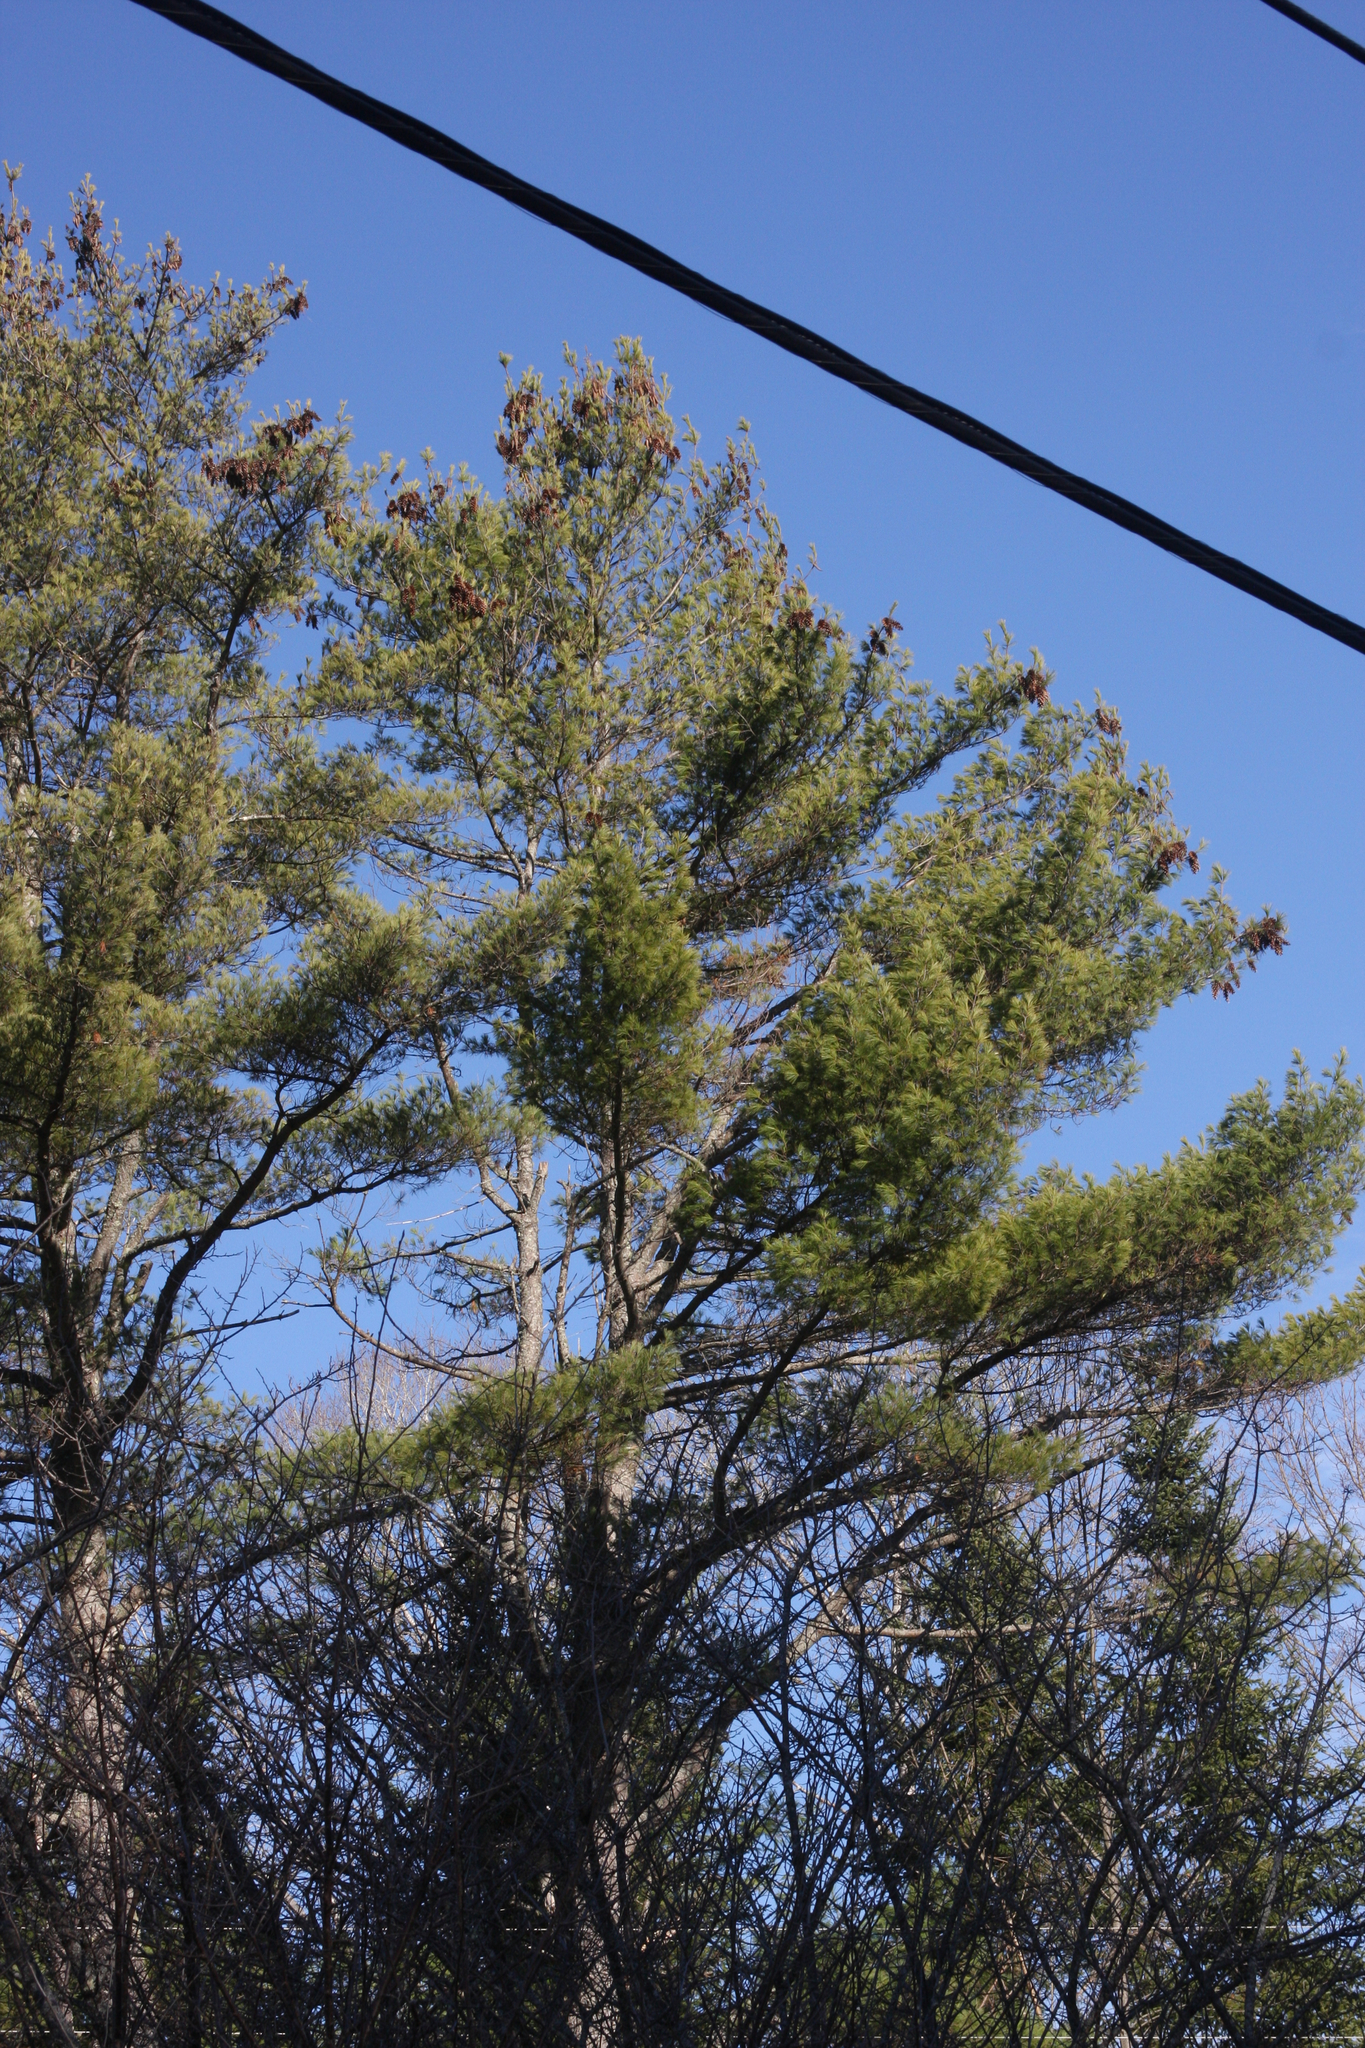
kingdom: Plantae
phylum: Tracheophyta
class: Pinopsida
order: Pinales
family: Pinaceae
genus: Pinus
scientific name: Pinus strobus
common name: Weymouth pine
